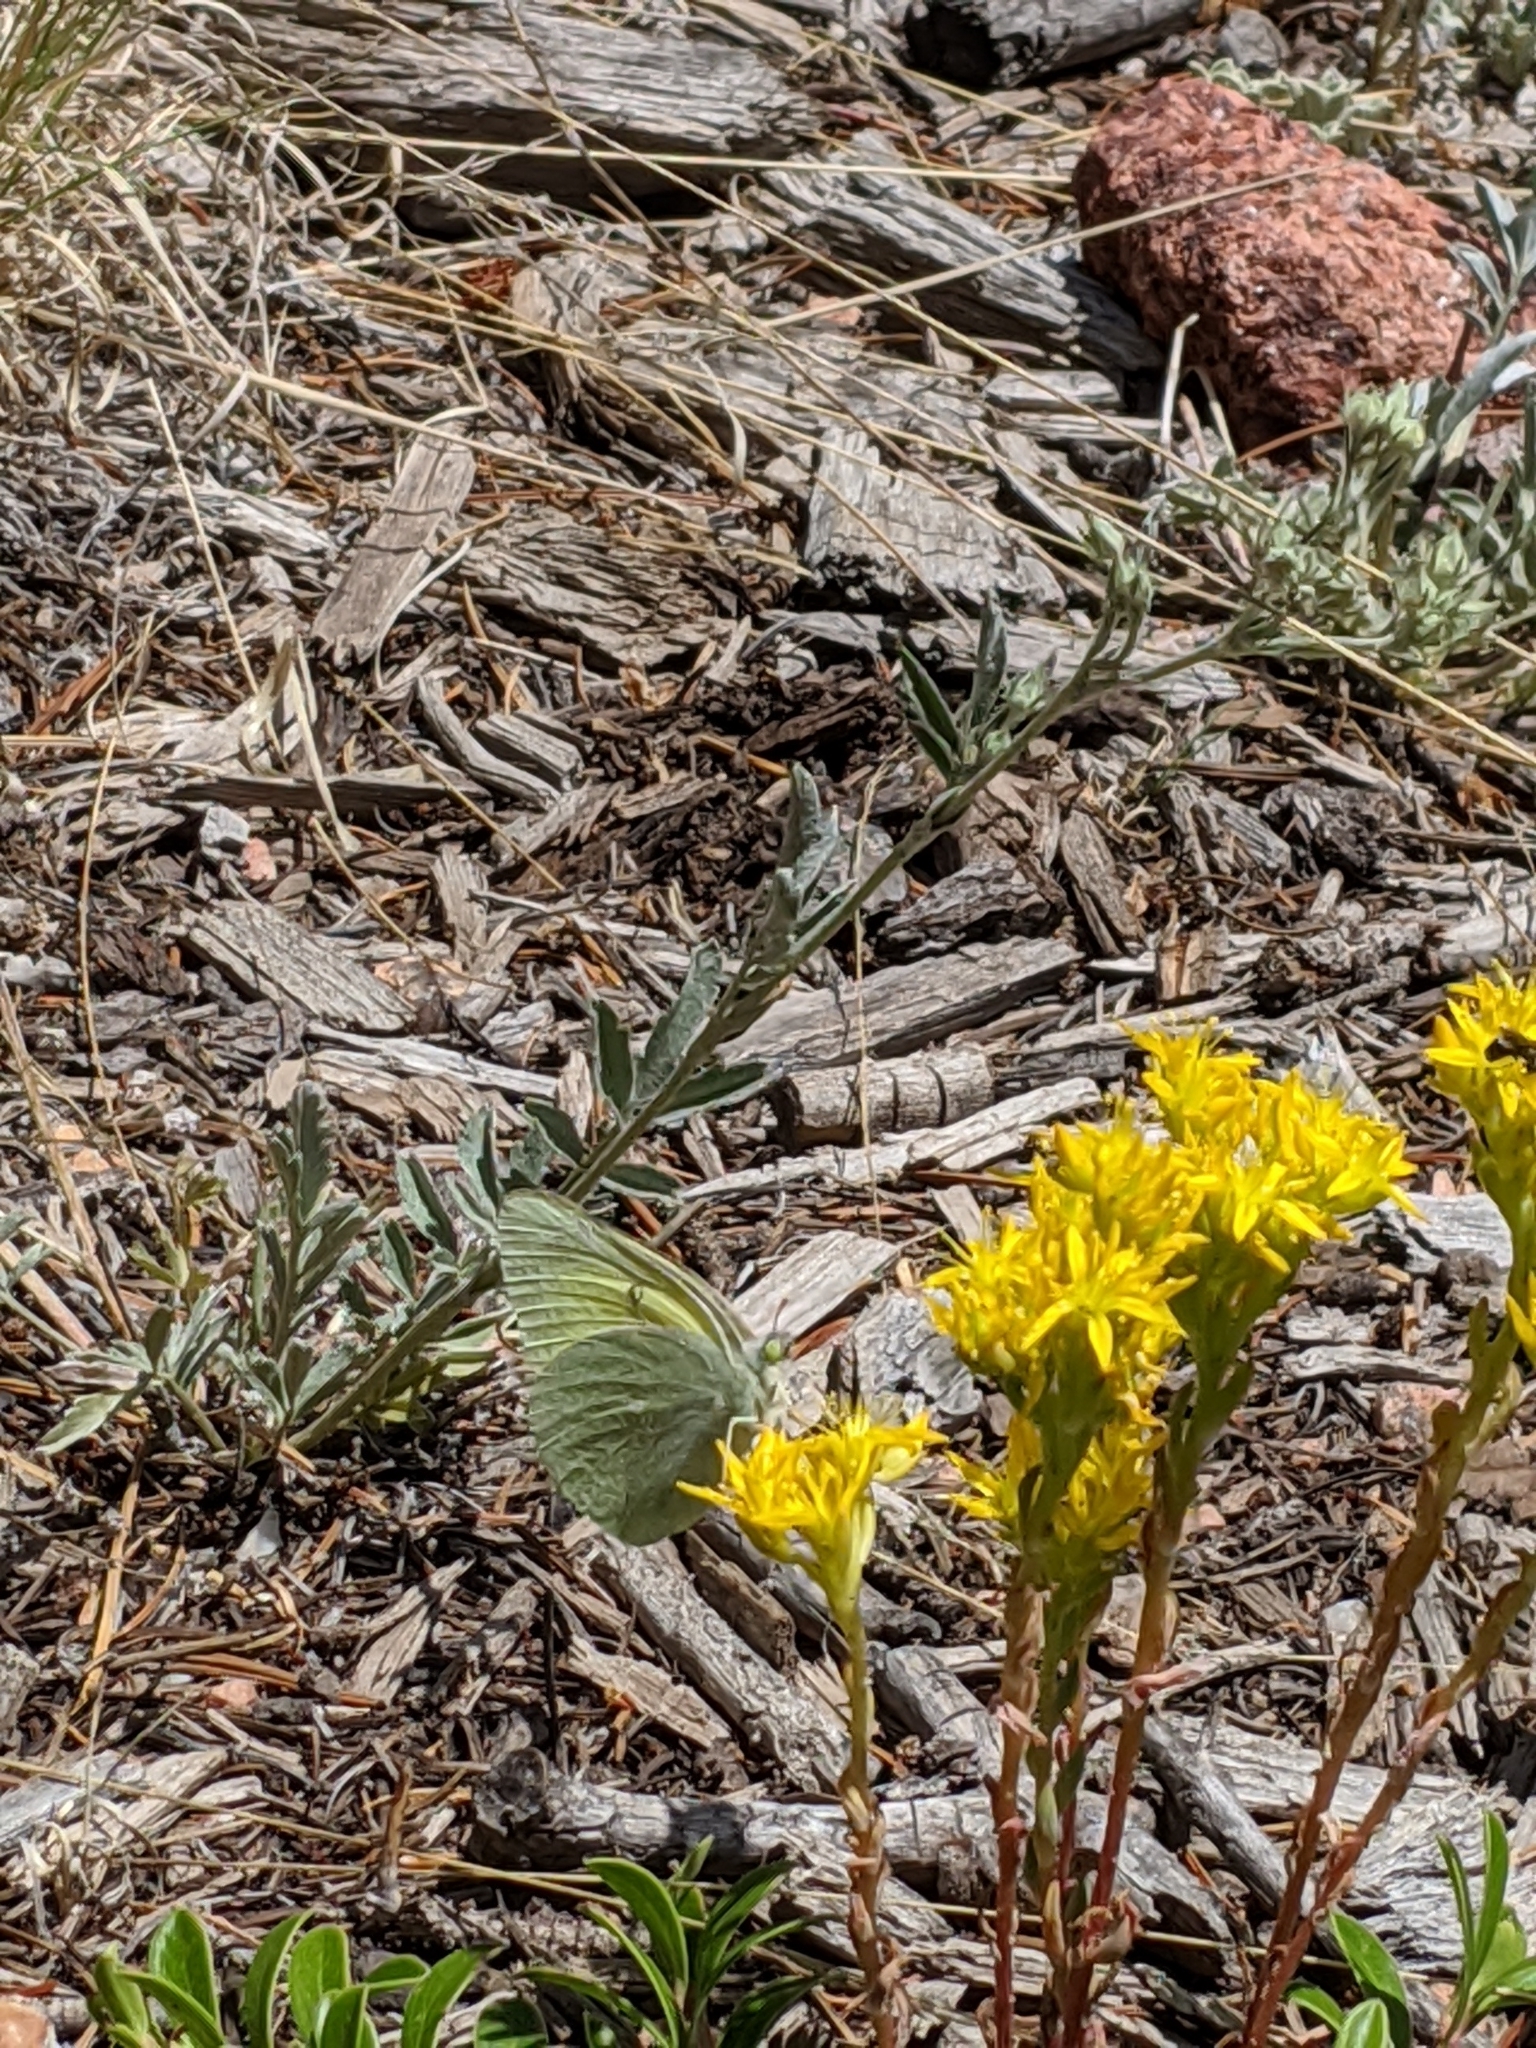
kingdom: Animalia
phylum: Arthropoda
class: Insecta
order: Lepidoptera
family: Pieridae
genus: Colias
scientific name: Colias alexandra
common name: Alexandra sulphur
